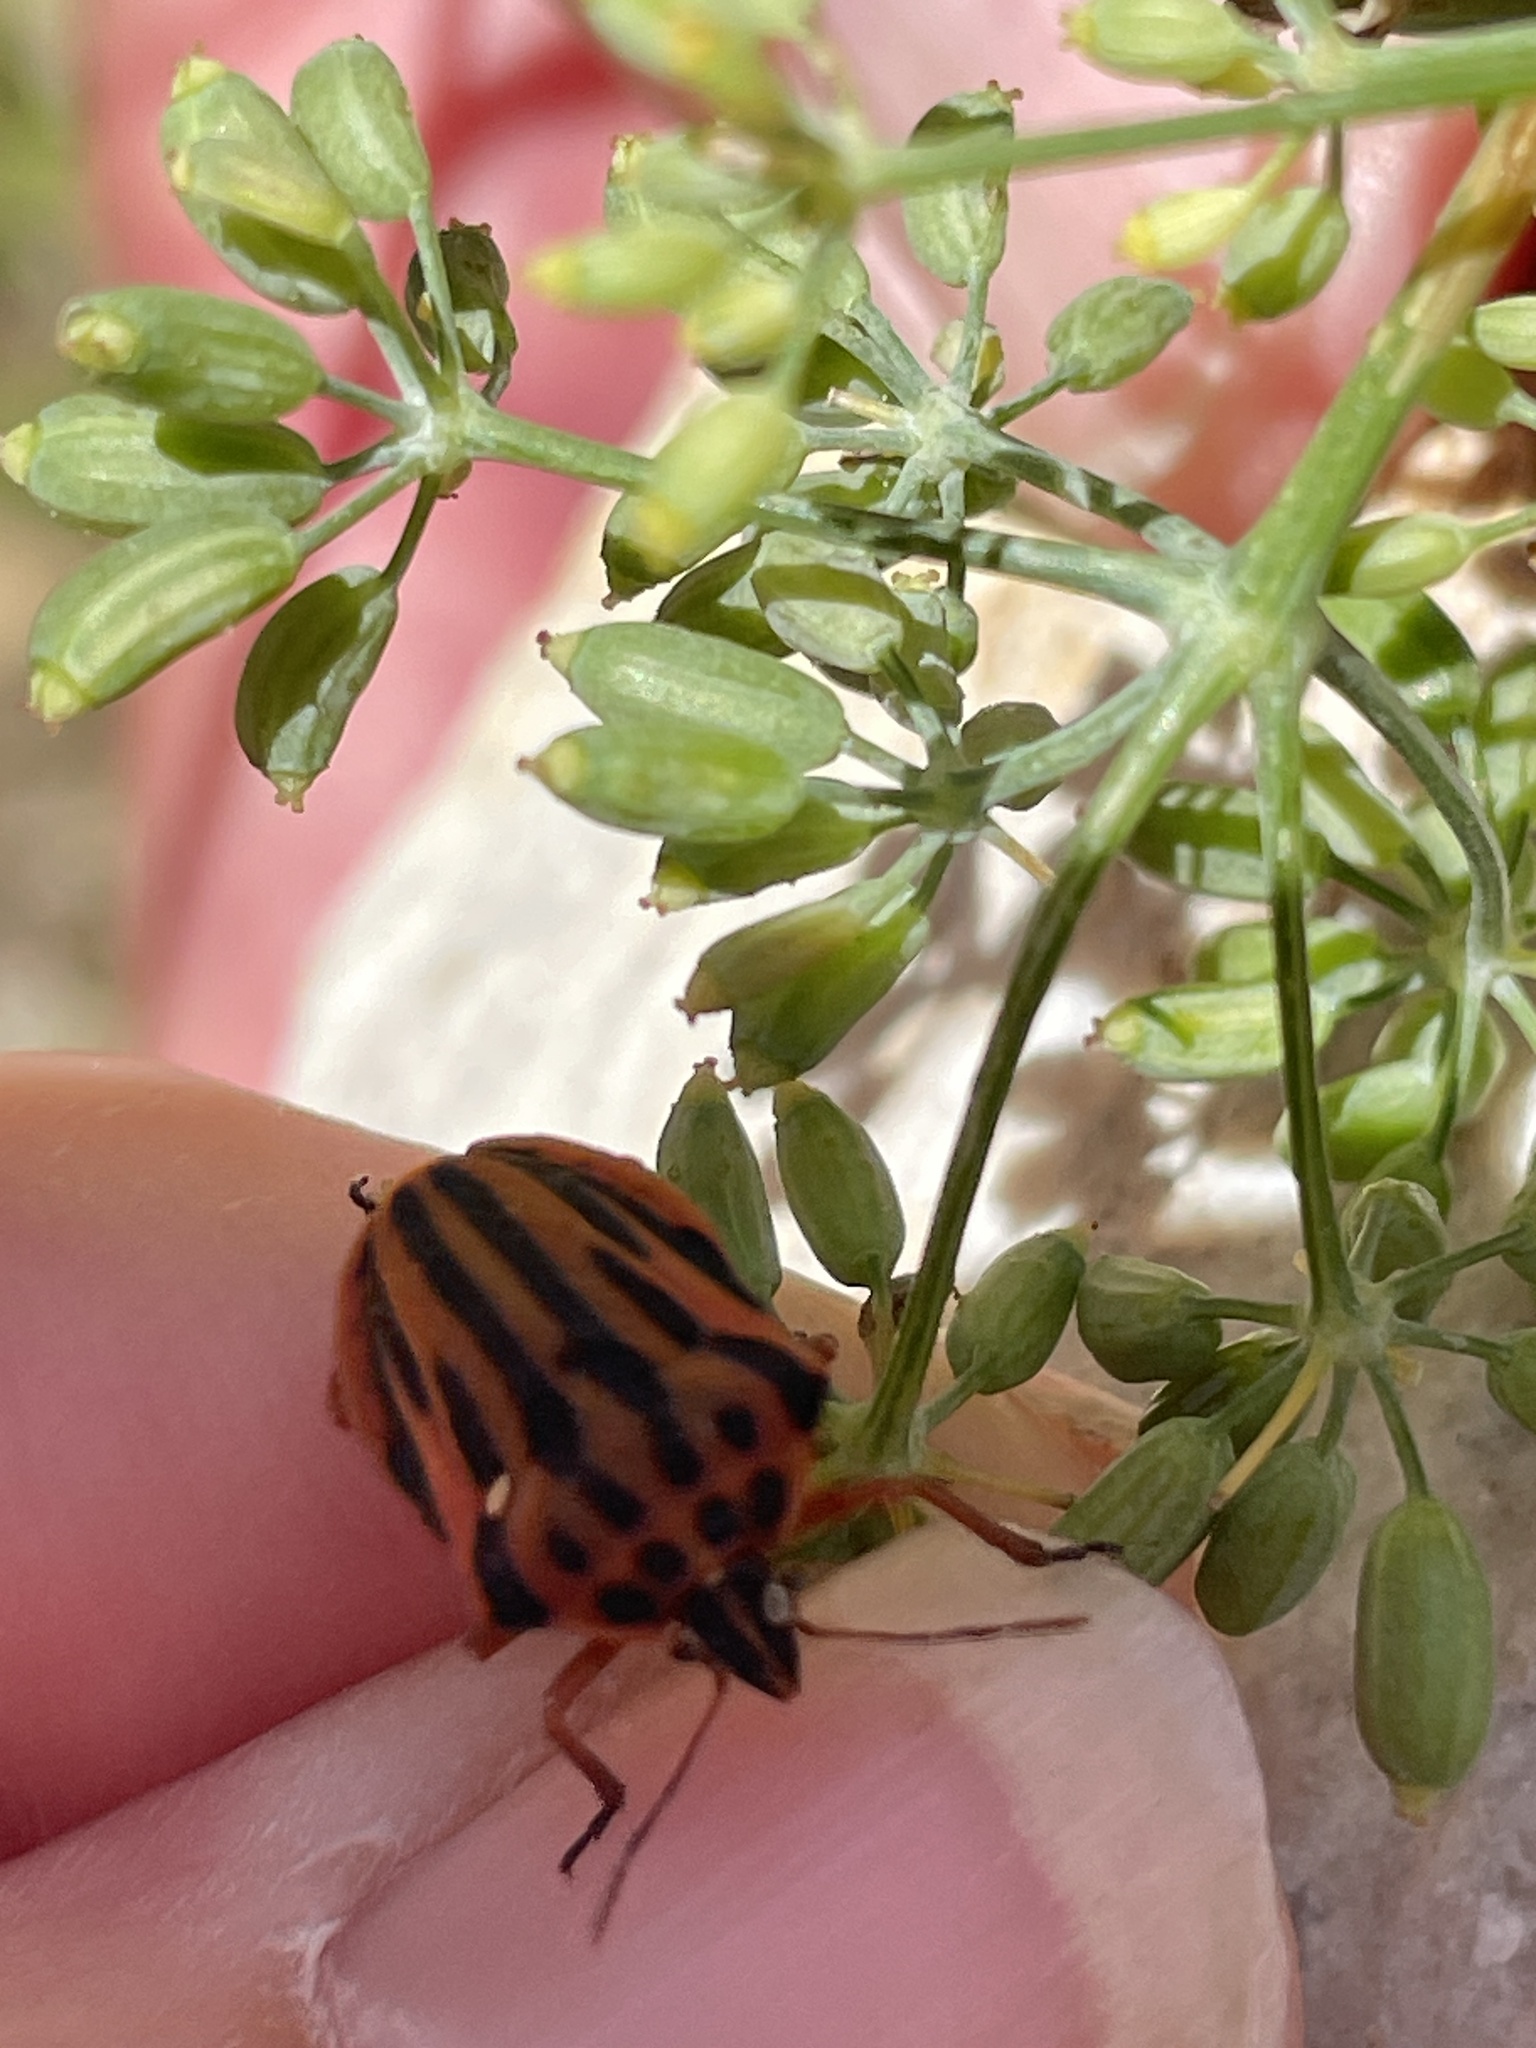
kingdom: Animalia
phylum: Arthropoda
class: Insecta
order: Hemiptera
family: Pentatomidae
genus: Graphosoma
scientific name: Graphosoma semipunctatum
